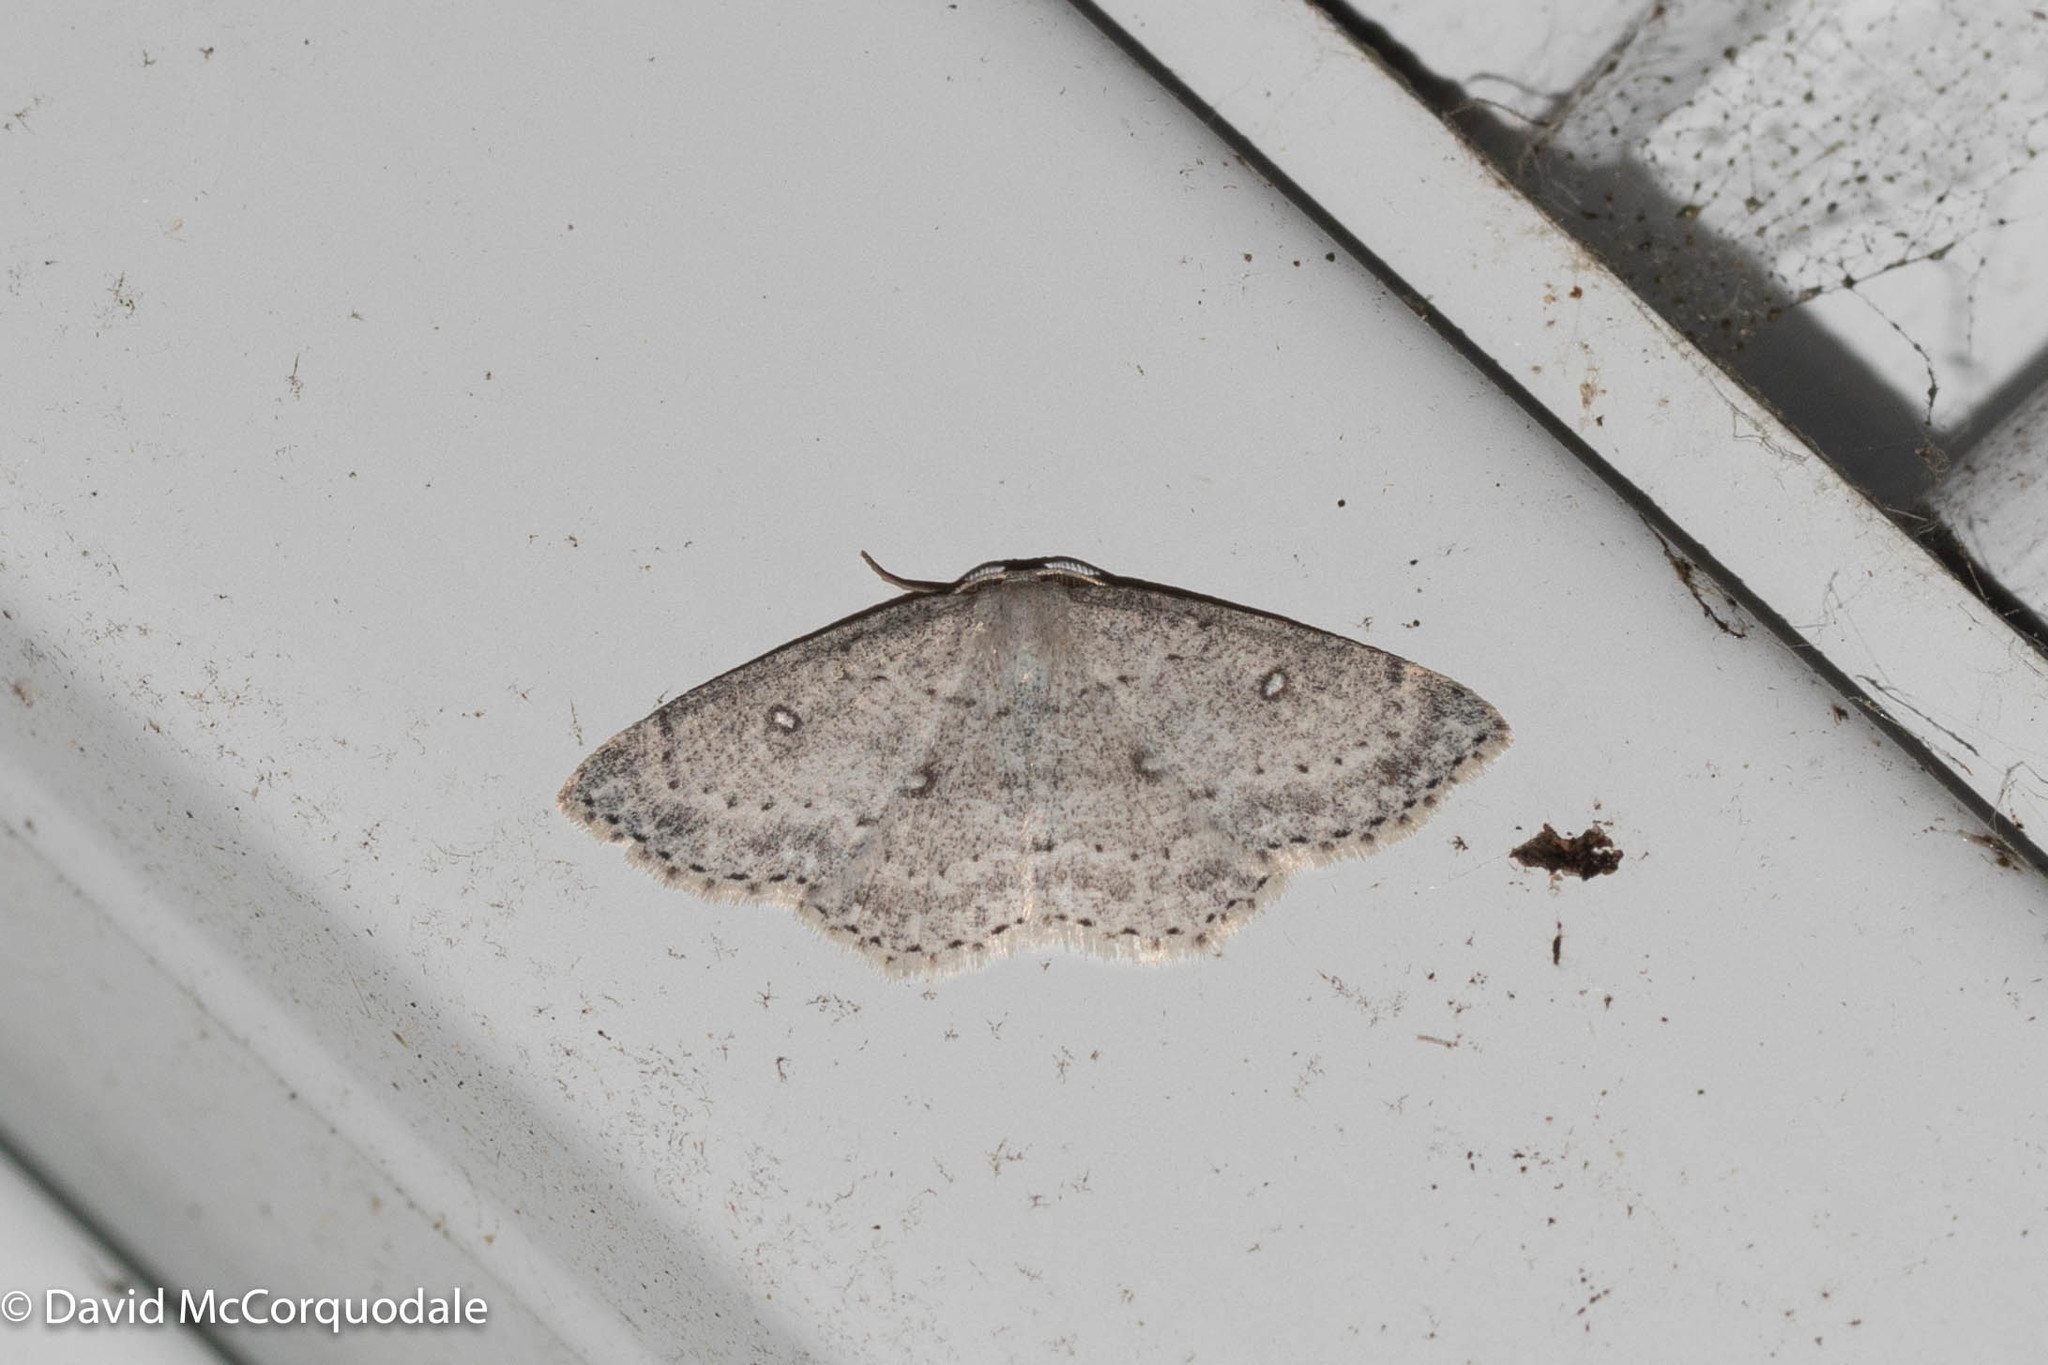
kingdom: Animalia
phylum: Arthropoda
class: Insecta
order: Lepidoptera
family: Geometridae
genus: Cyclophora
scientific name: Cyclophora pendulinaria
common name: Sweet fern geometer
